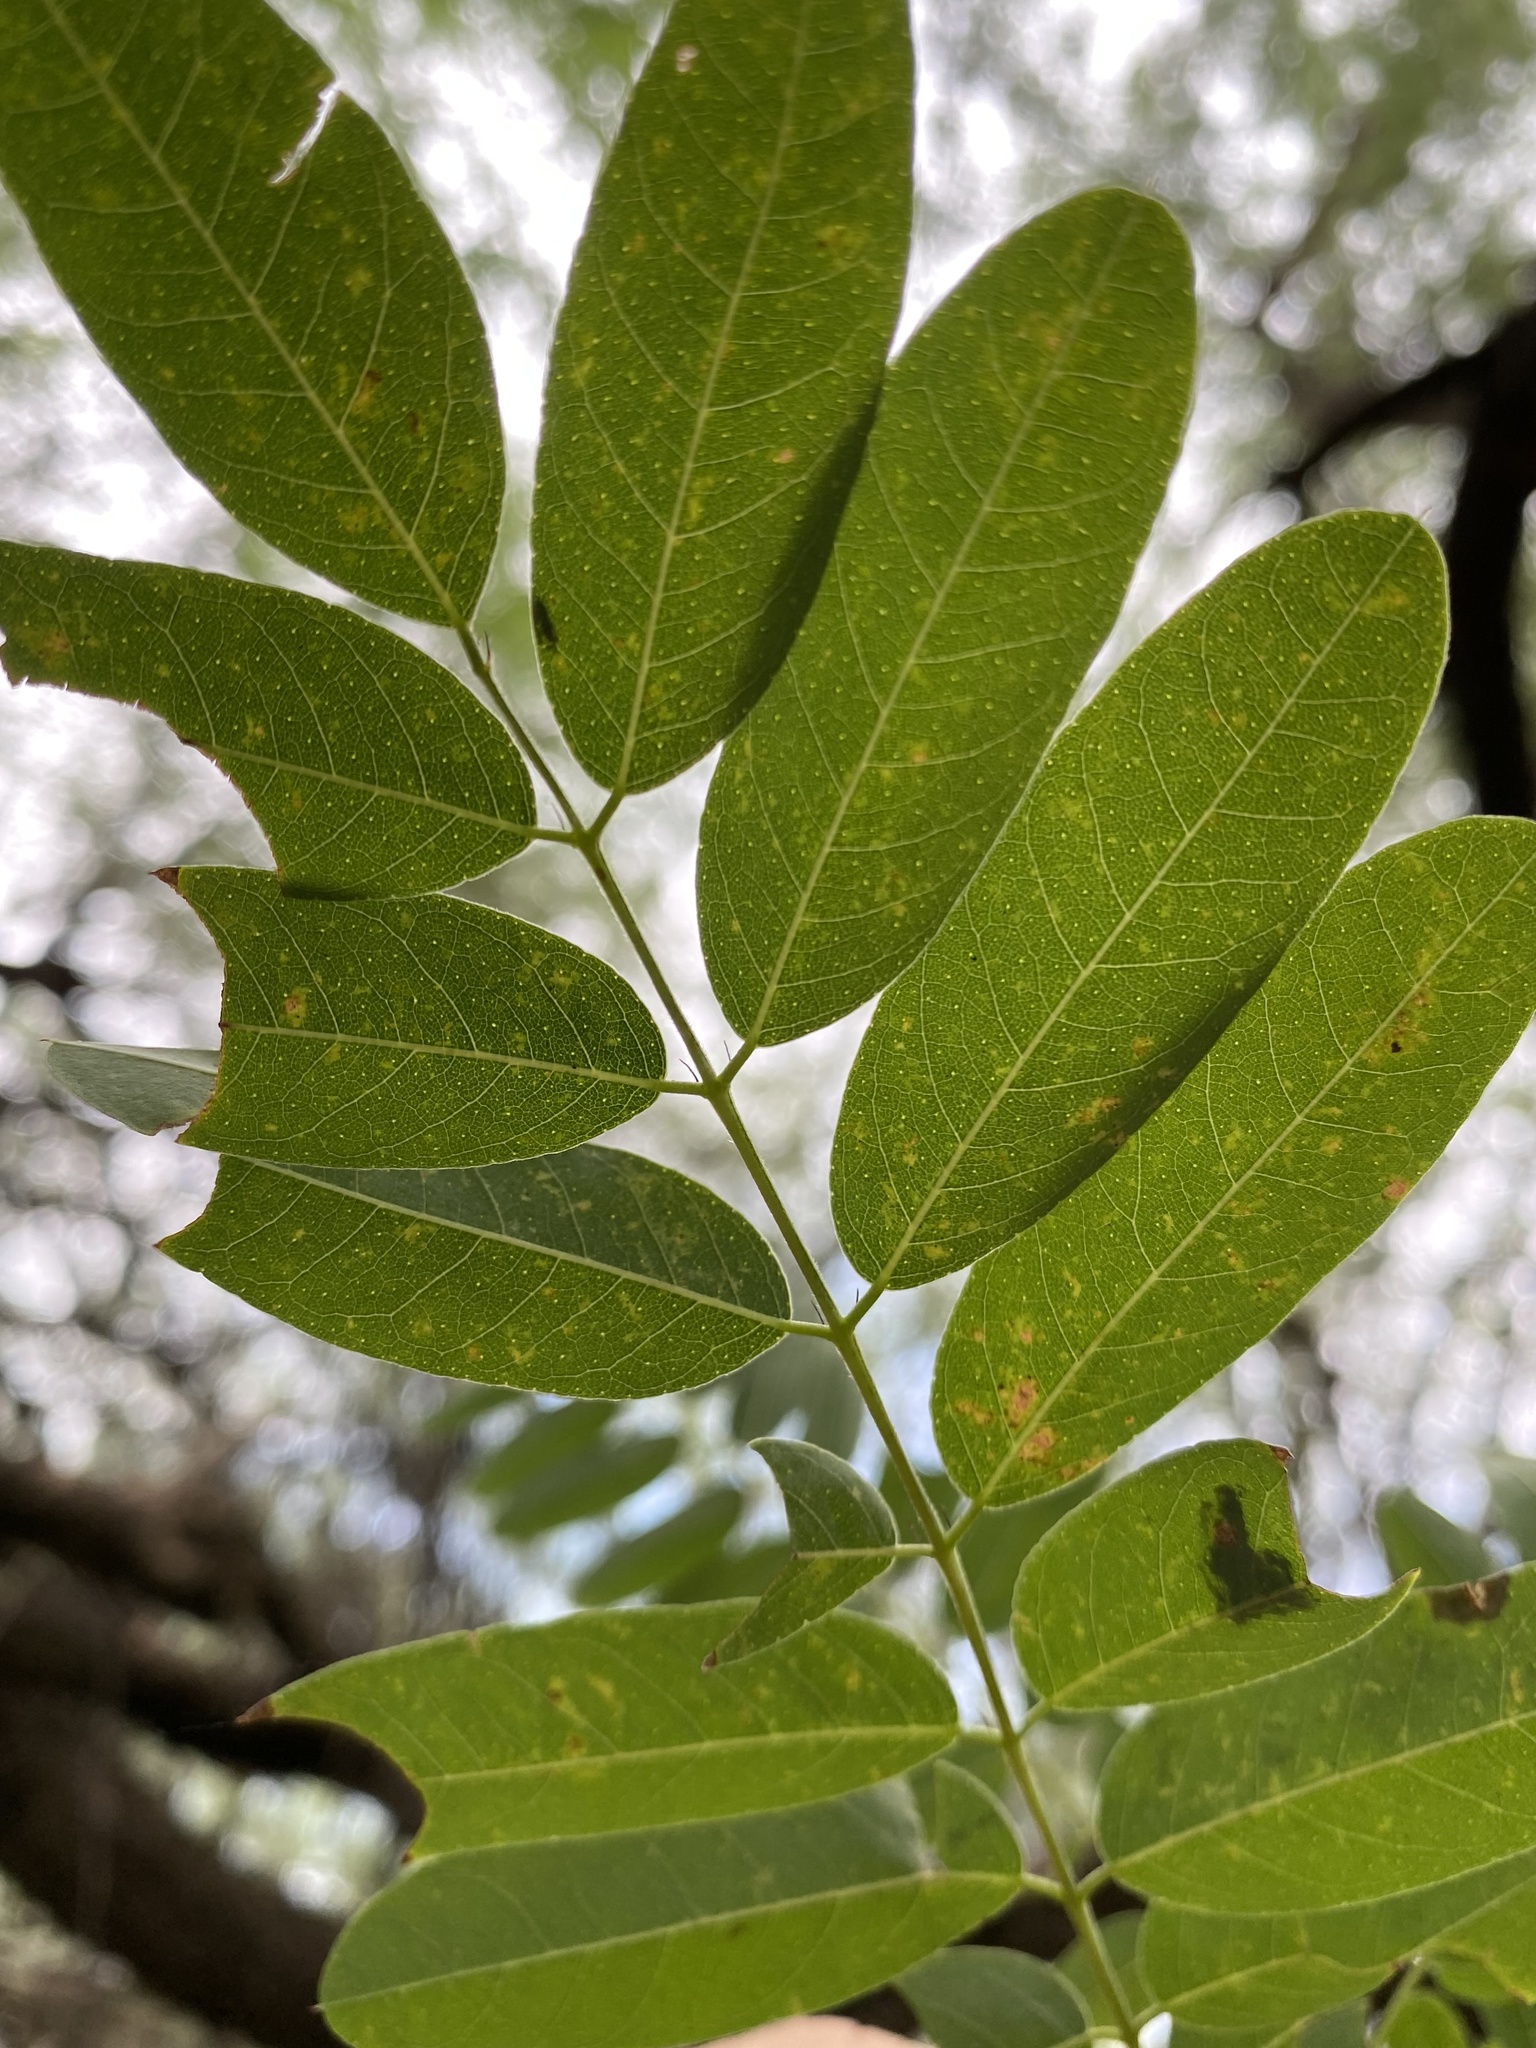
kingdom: Plantae
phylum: Tracheophyta
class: Magnoliopsida
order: Fabales
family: Fabaceae
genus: Amorpha
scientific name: Amorpha fruticosa
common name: False indigo
